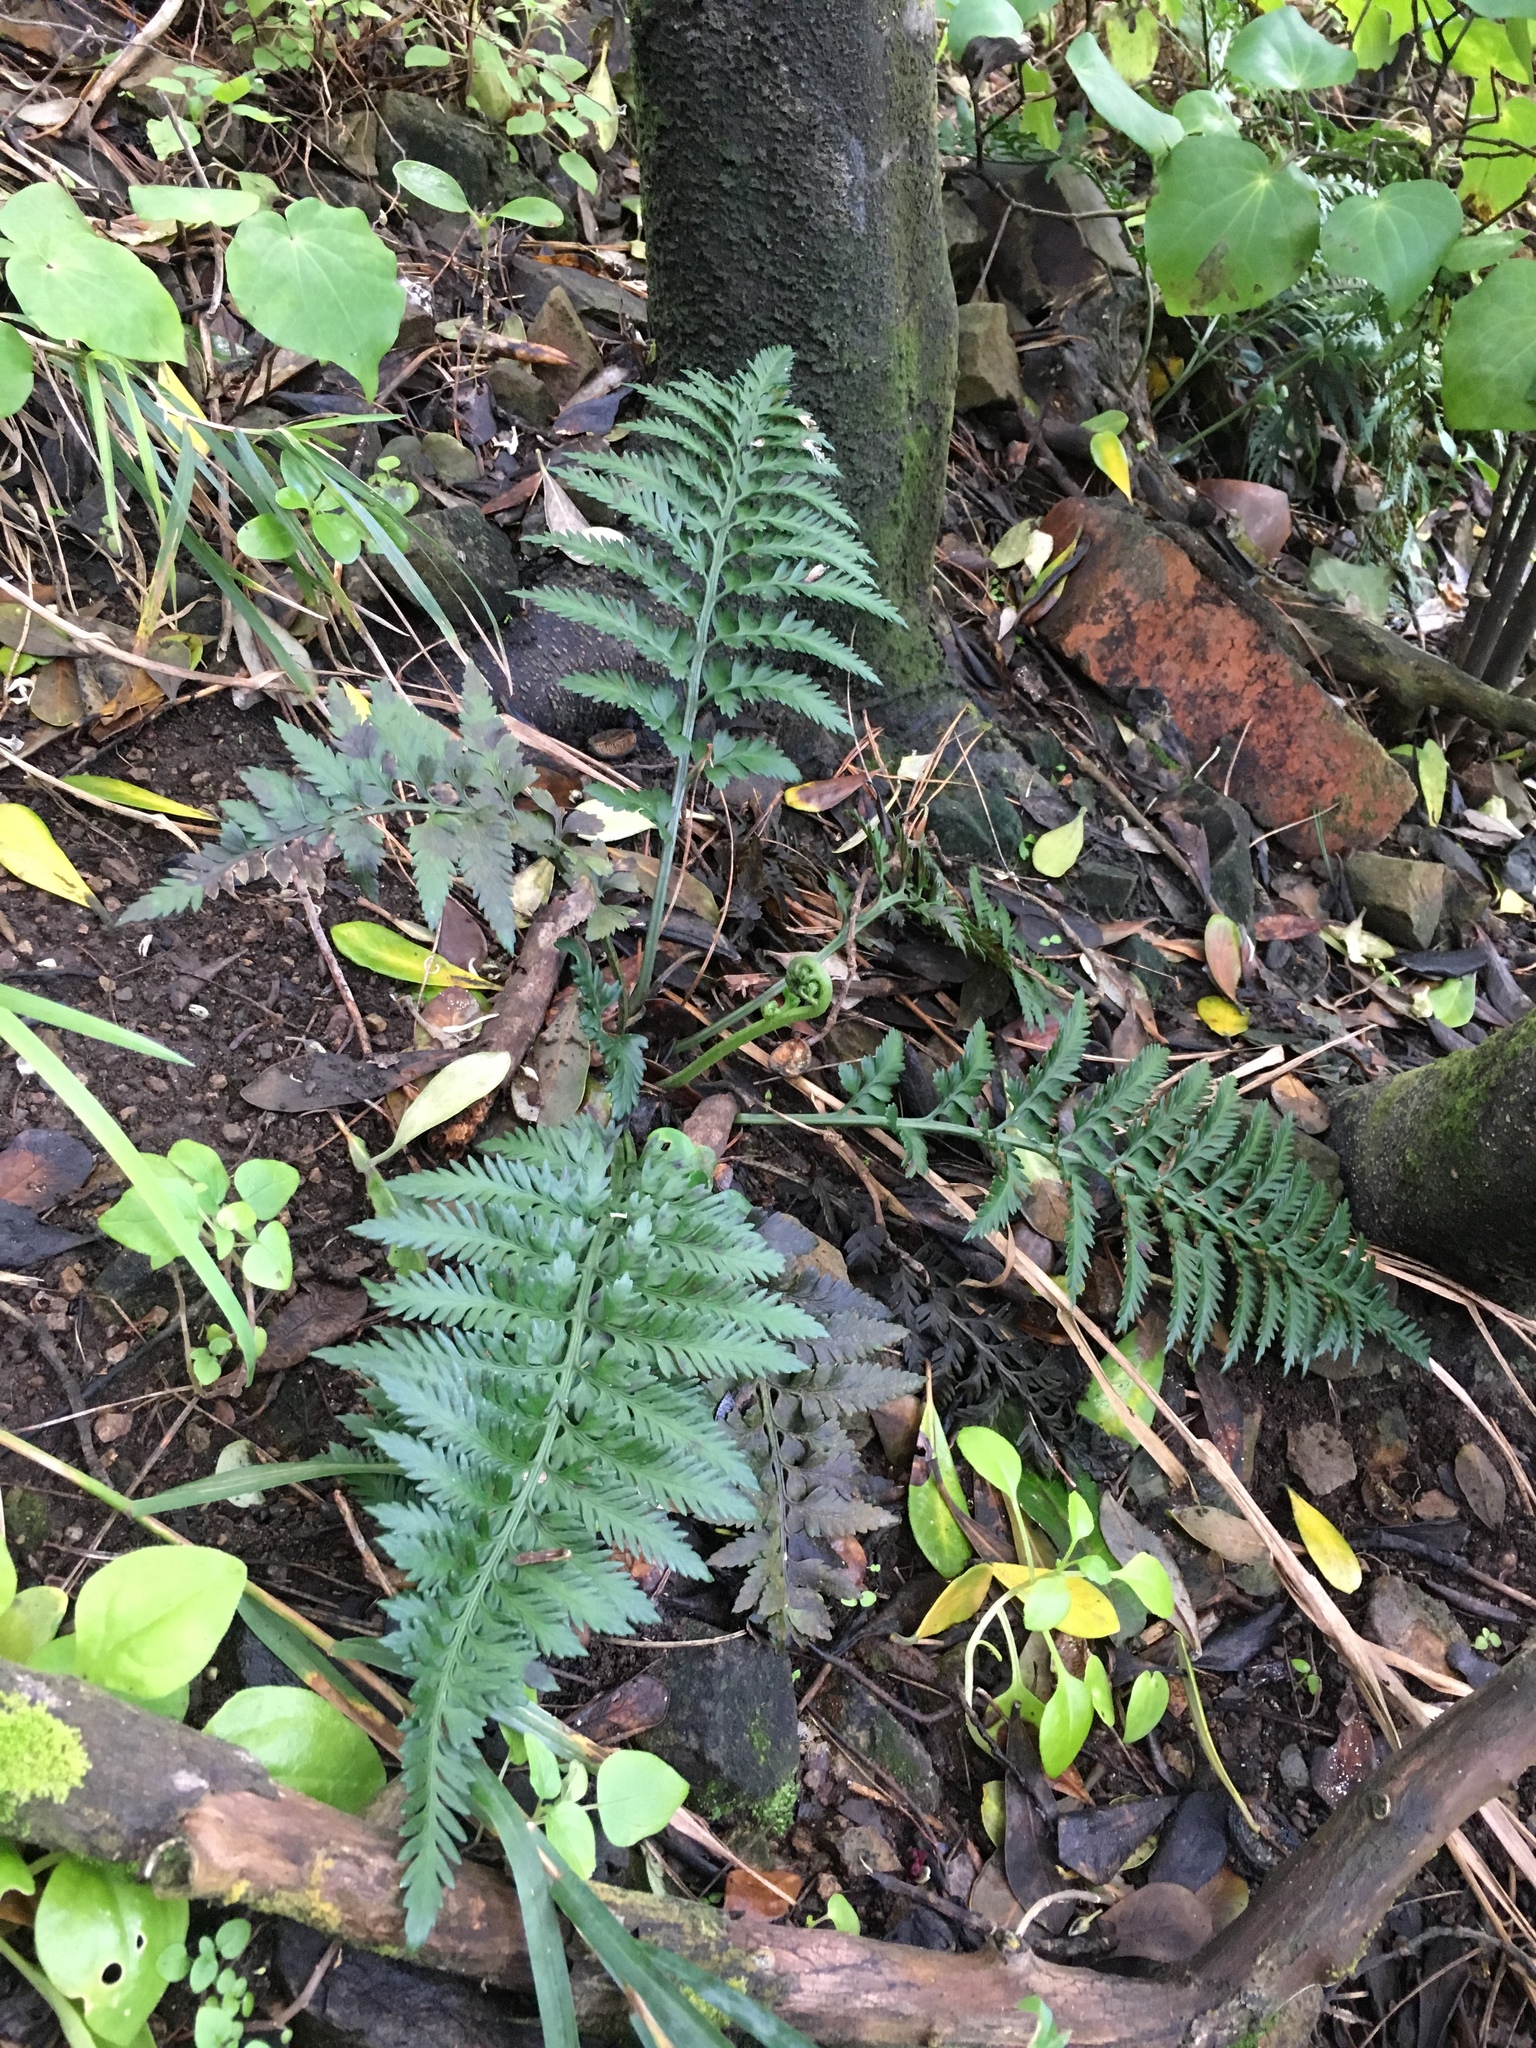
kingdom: Plantae
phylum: Tracheophyta
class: Polypodiopsida
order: Polypodiales
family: Aspleniaceae
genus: Asplenium
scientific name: Asplenium appendiculatum
